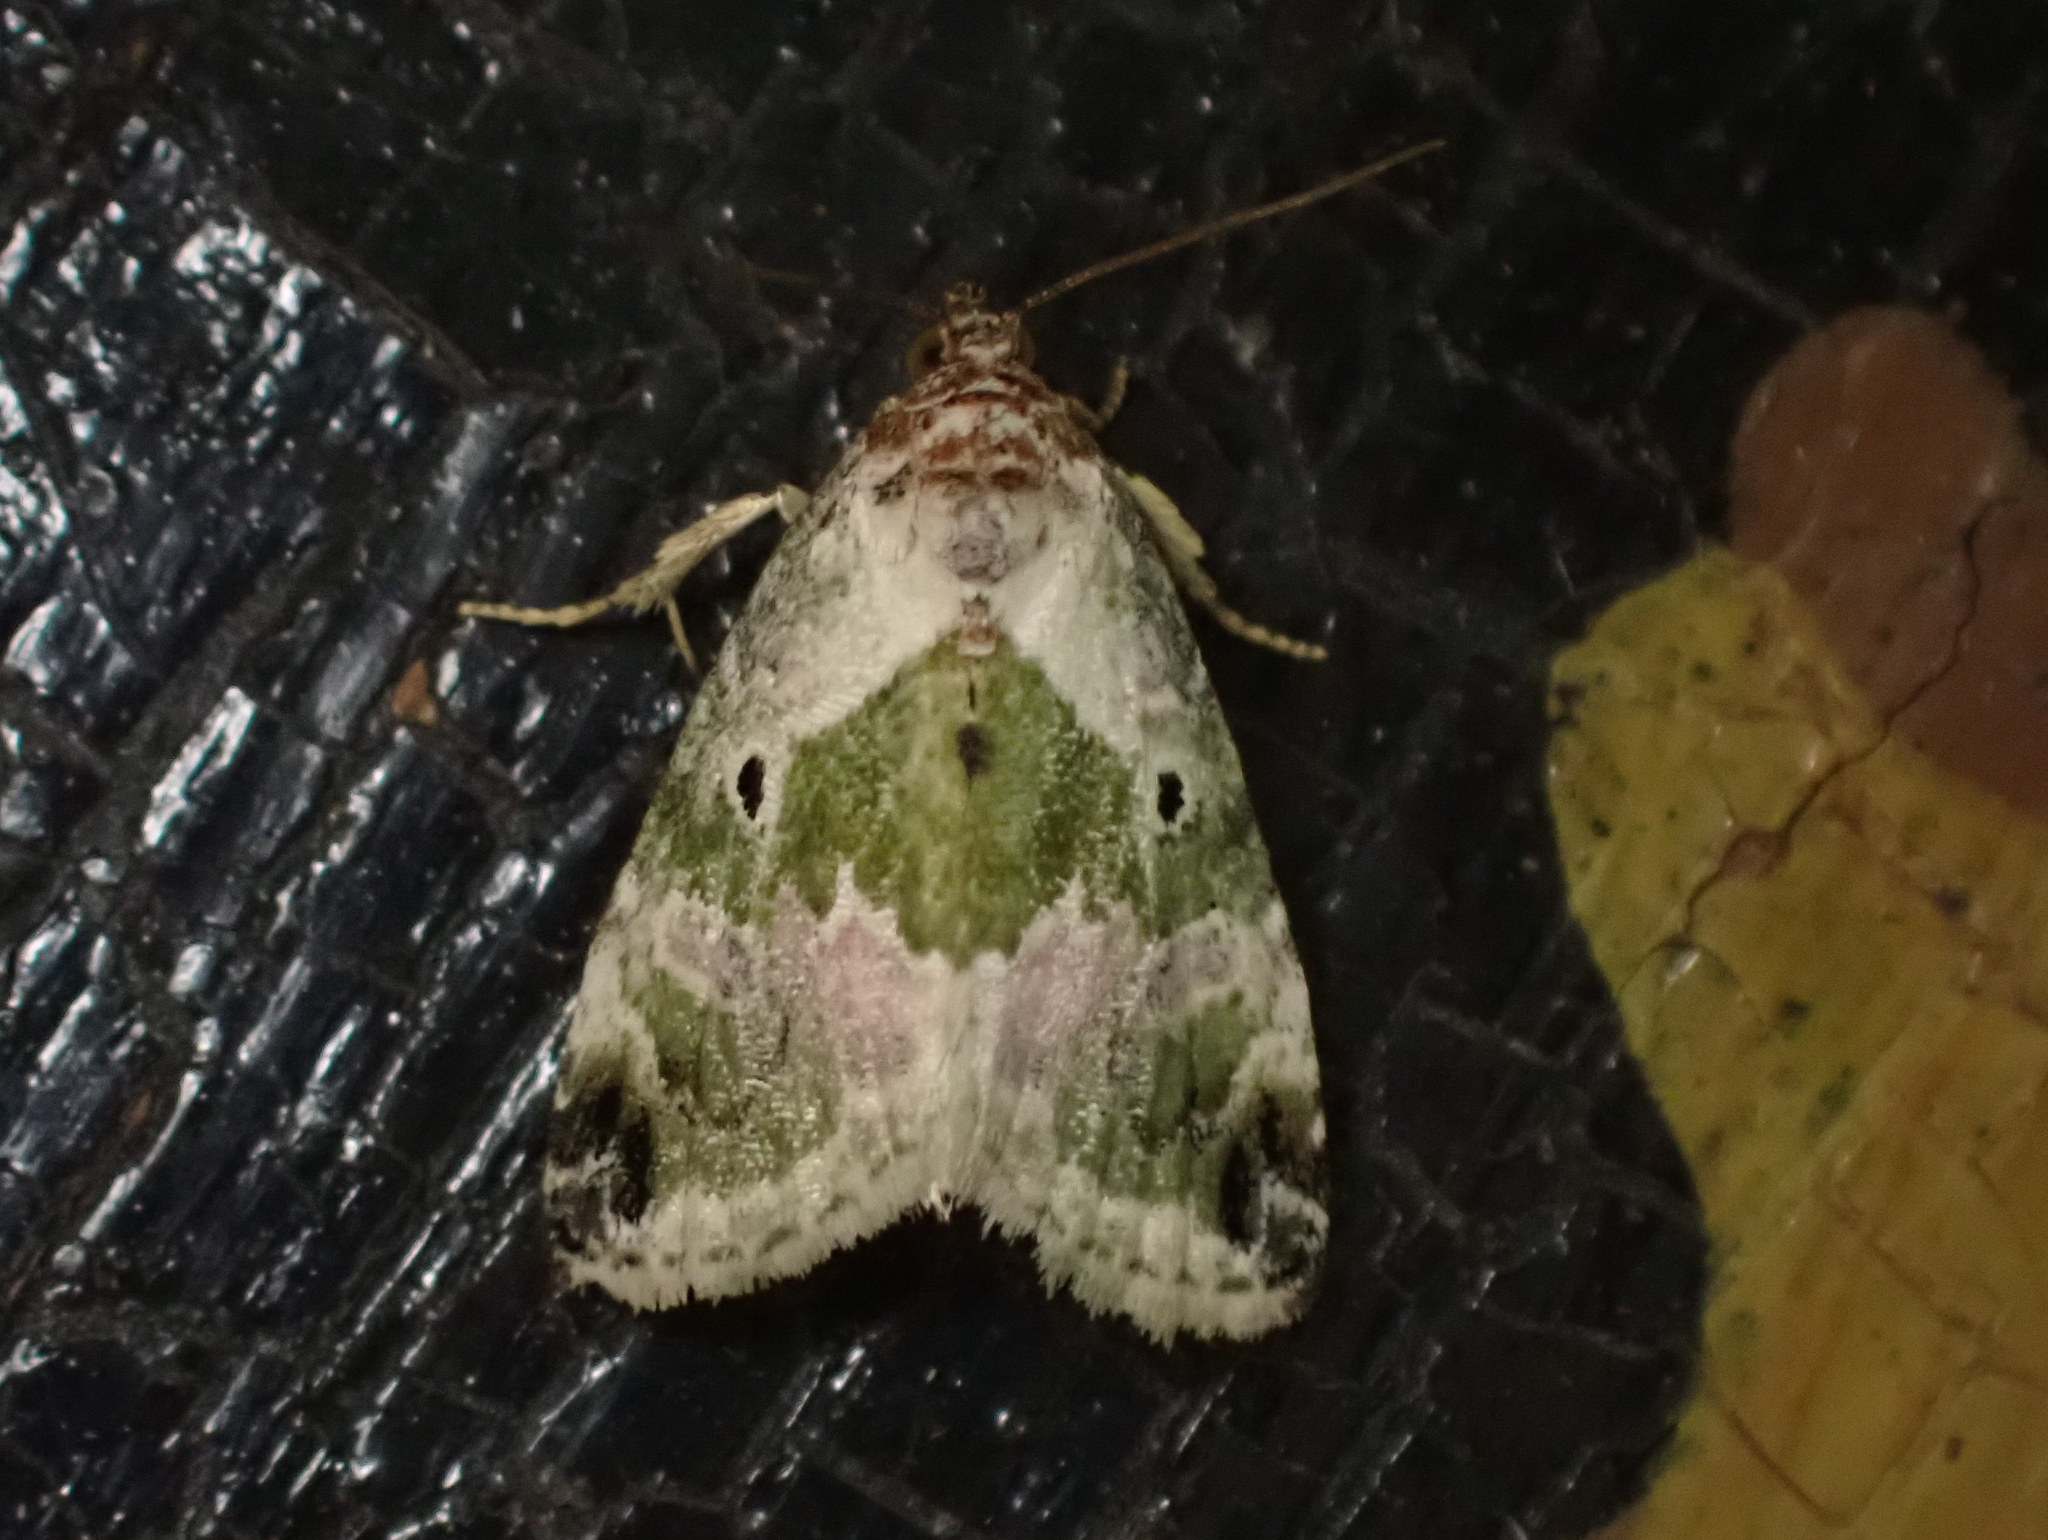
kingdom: Animalia
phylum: Arthropoda
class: Insecta
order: Lepidoptera
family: Noctuidae
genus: Maliattha
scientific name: Maliattha synochitis
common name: Black-dotted glyph
